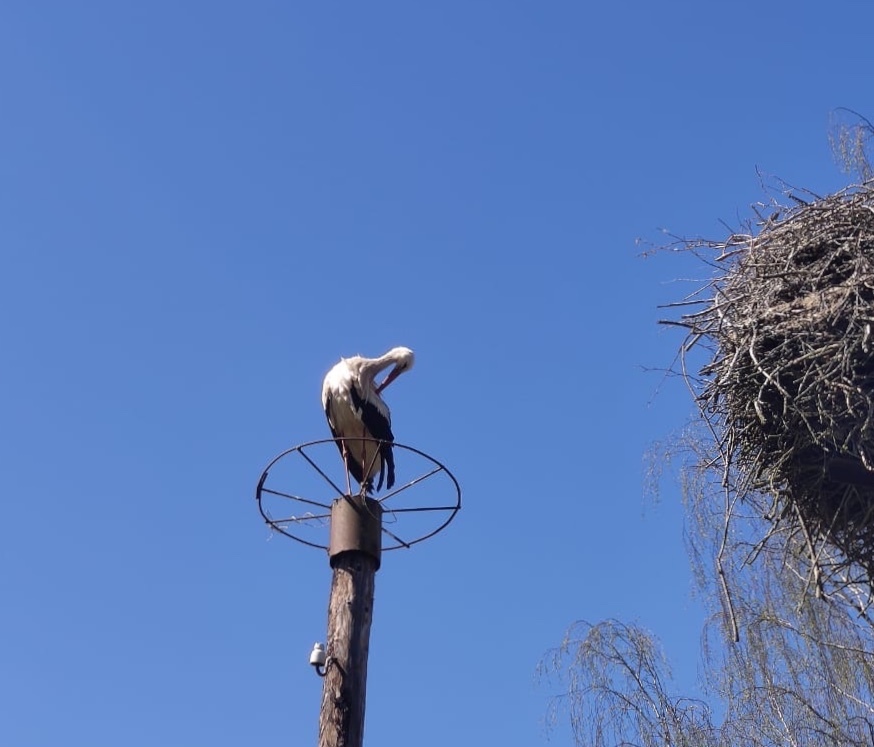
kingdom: Animalia
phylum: Chordata
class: Aves
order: Ciconiiformes
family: Ciconiidae
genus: Ciconia
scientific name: Ciconia ciconia
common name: White stork
